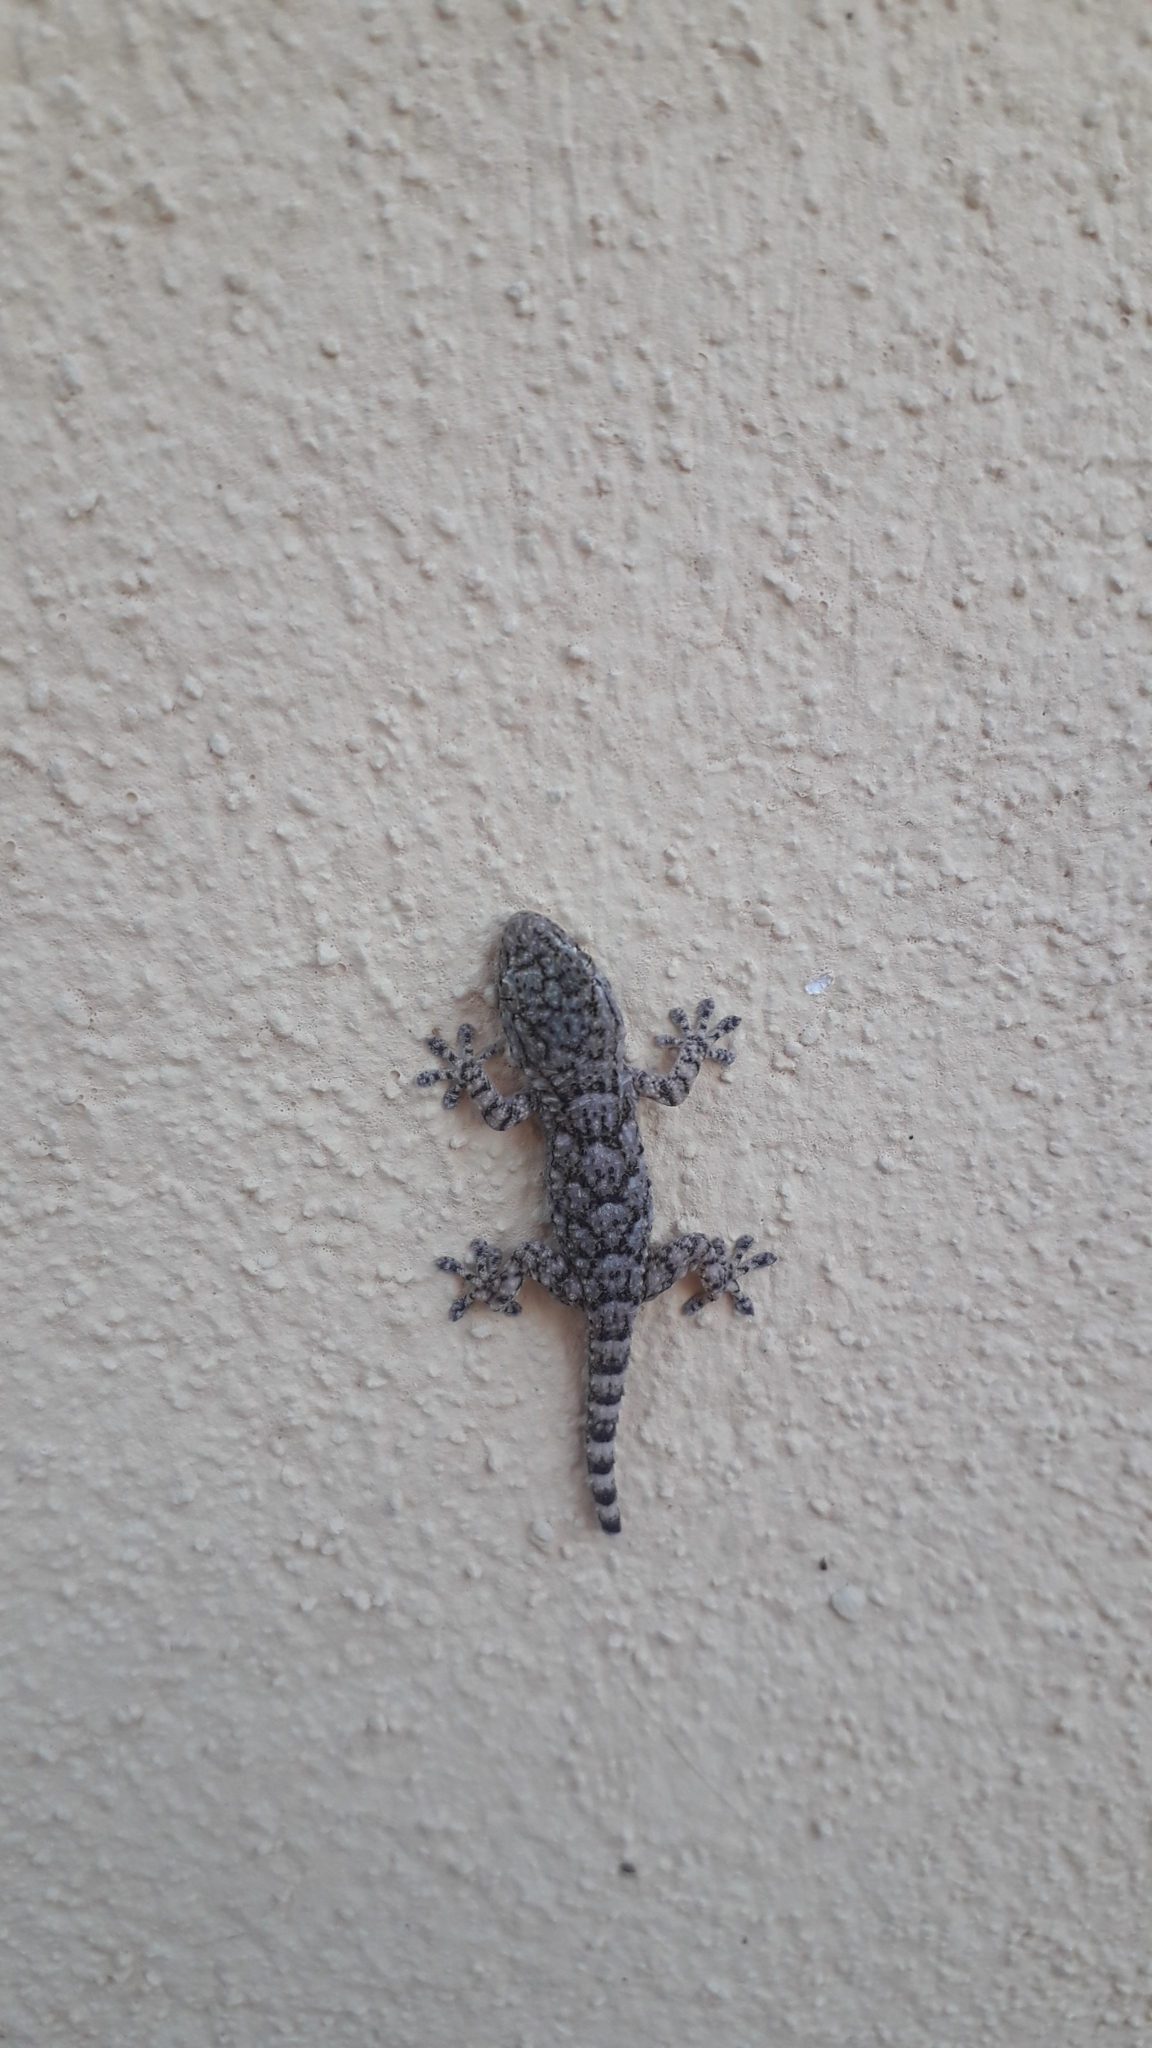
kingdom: Animalia
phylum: Chordata
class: Squamata
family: Phyllodactylidae
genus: Tarentola
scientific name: Tarentola mauritanica
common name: Moorish gecko
